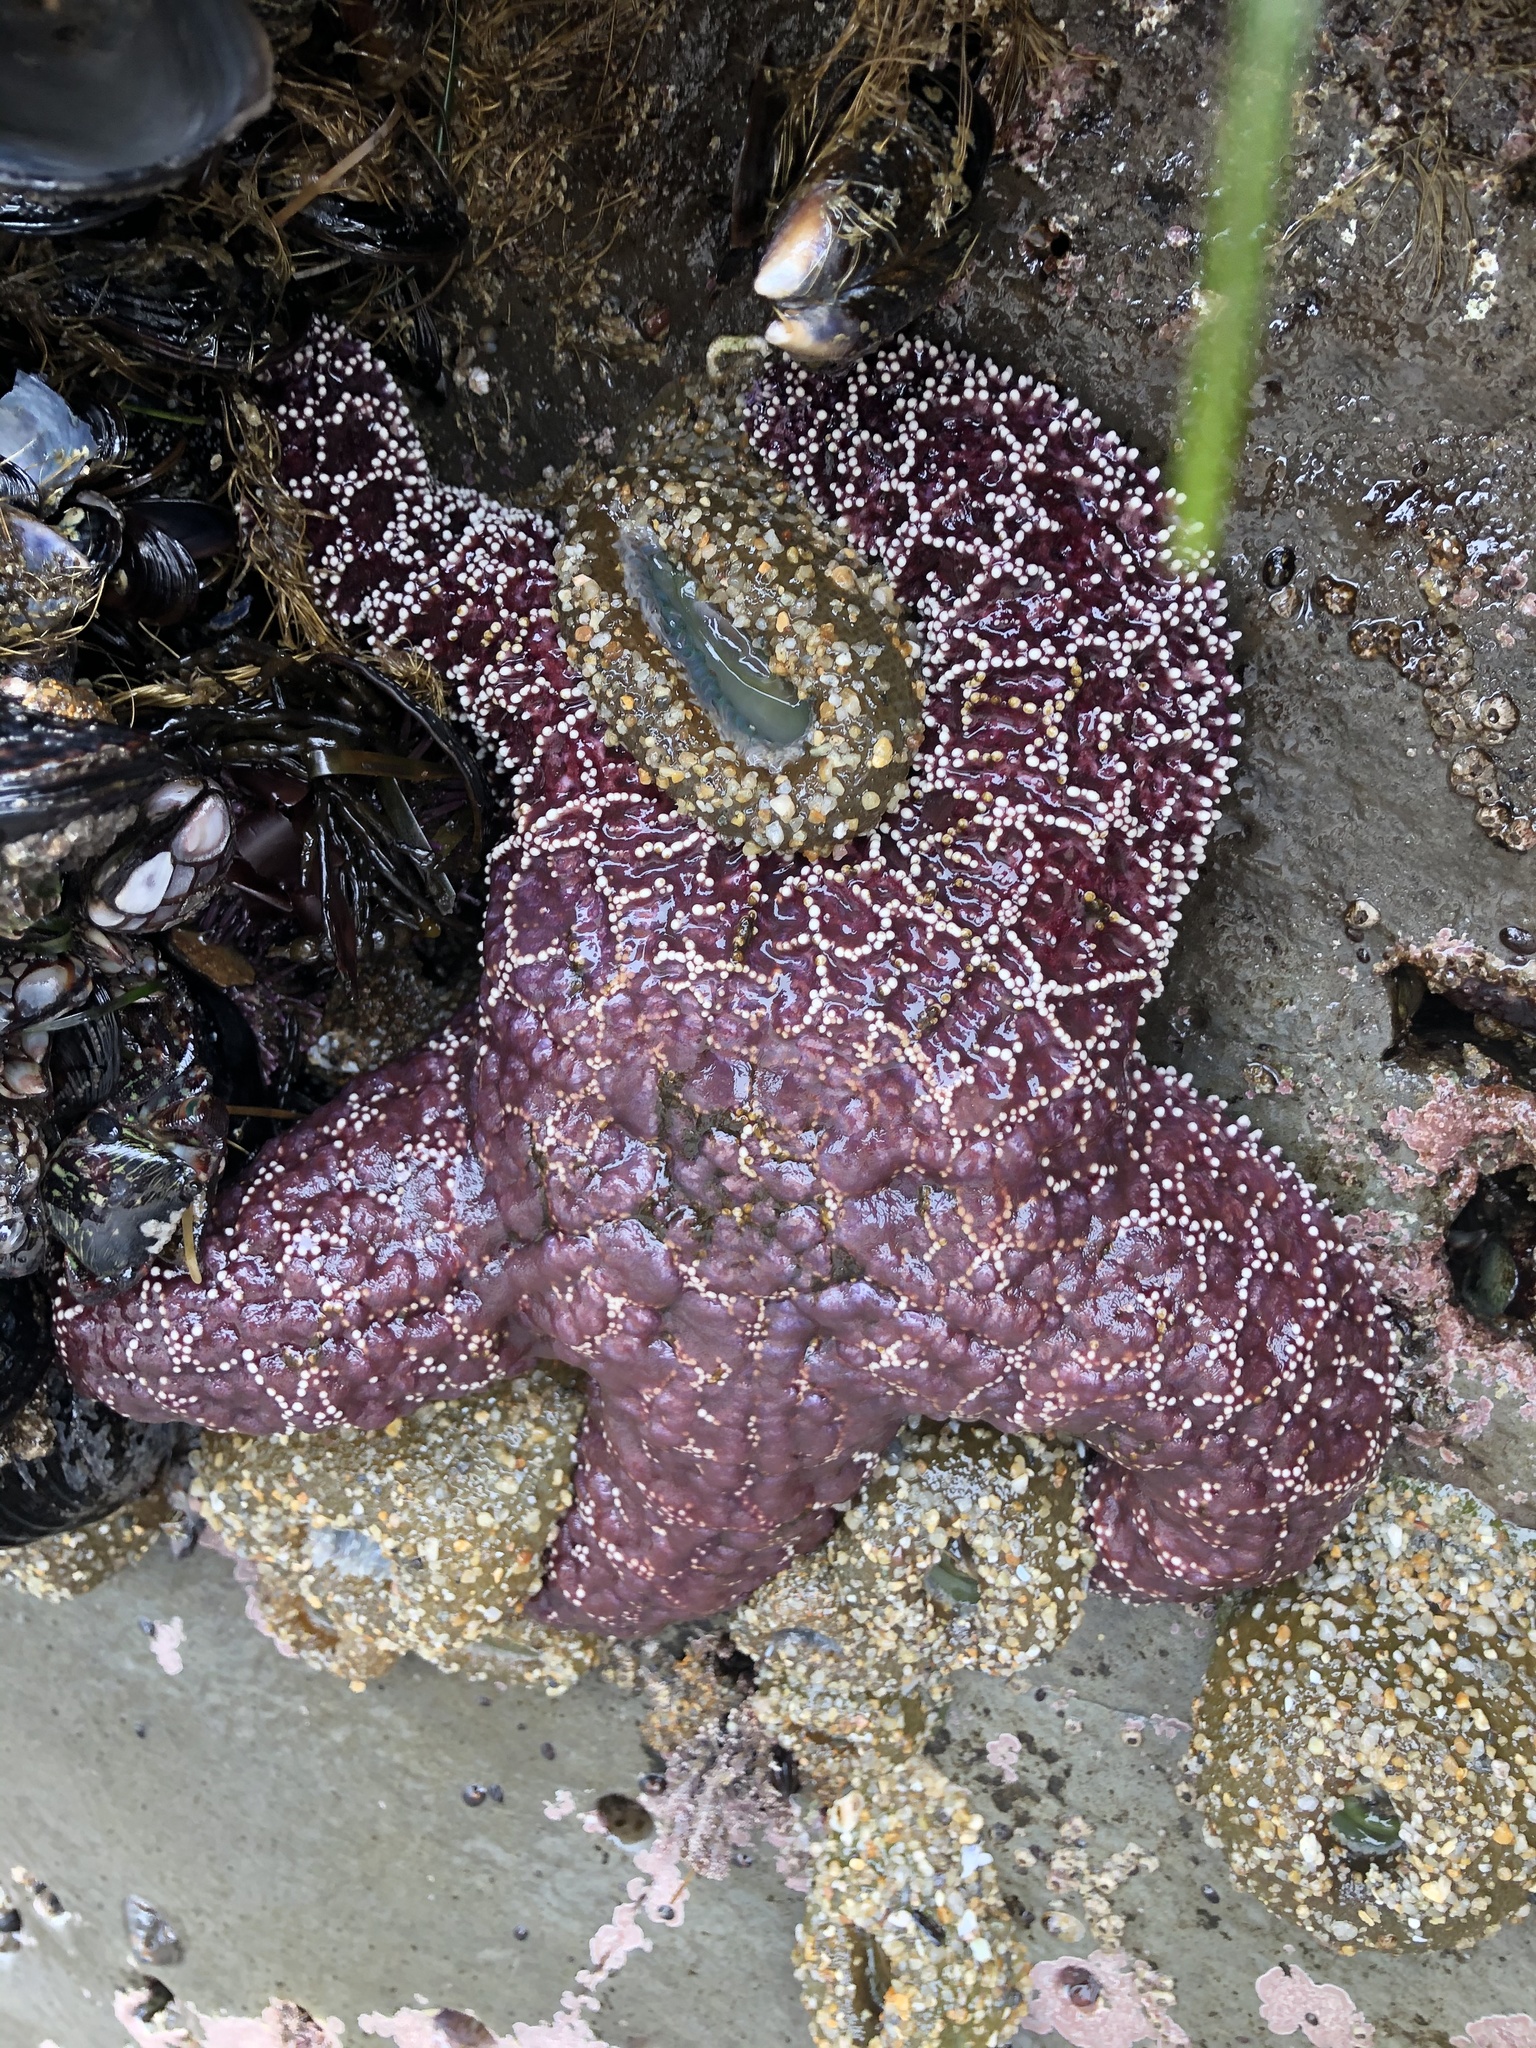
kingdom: Animalia
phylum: Echinodermata
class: Asteroidea
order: Forcipulatida
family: Asteriidae
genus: Pisaster
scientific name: Pisaster ochraceus
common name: Ochre stars
